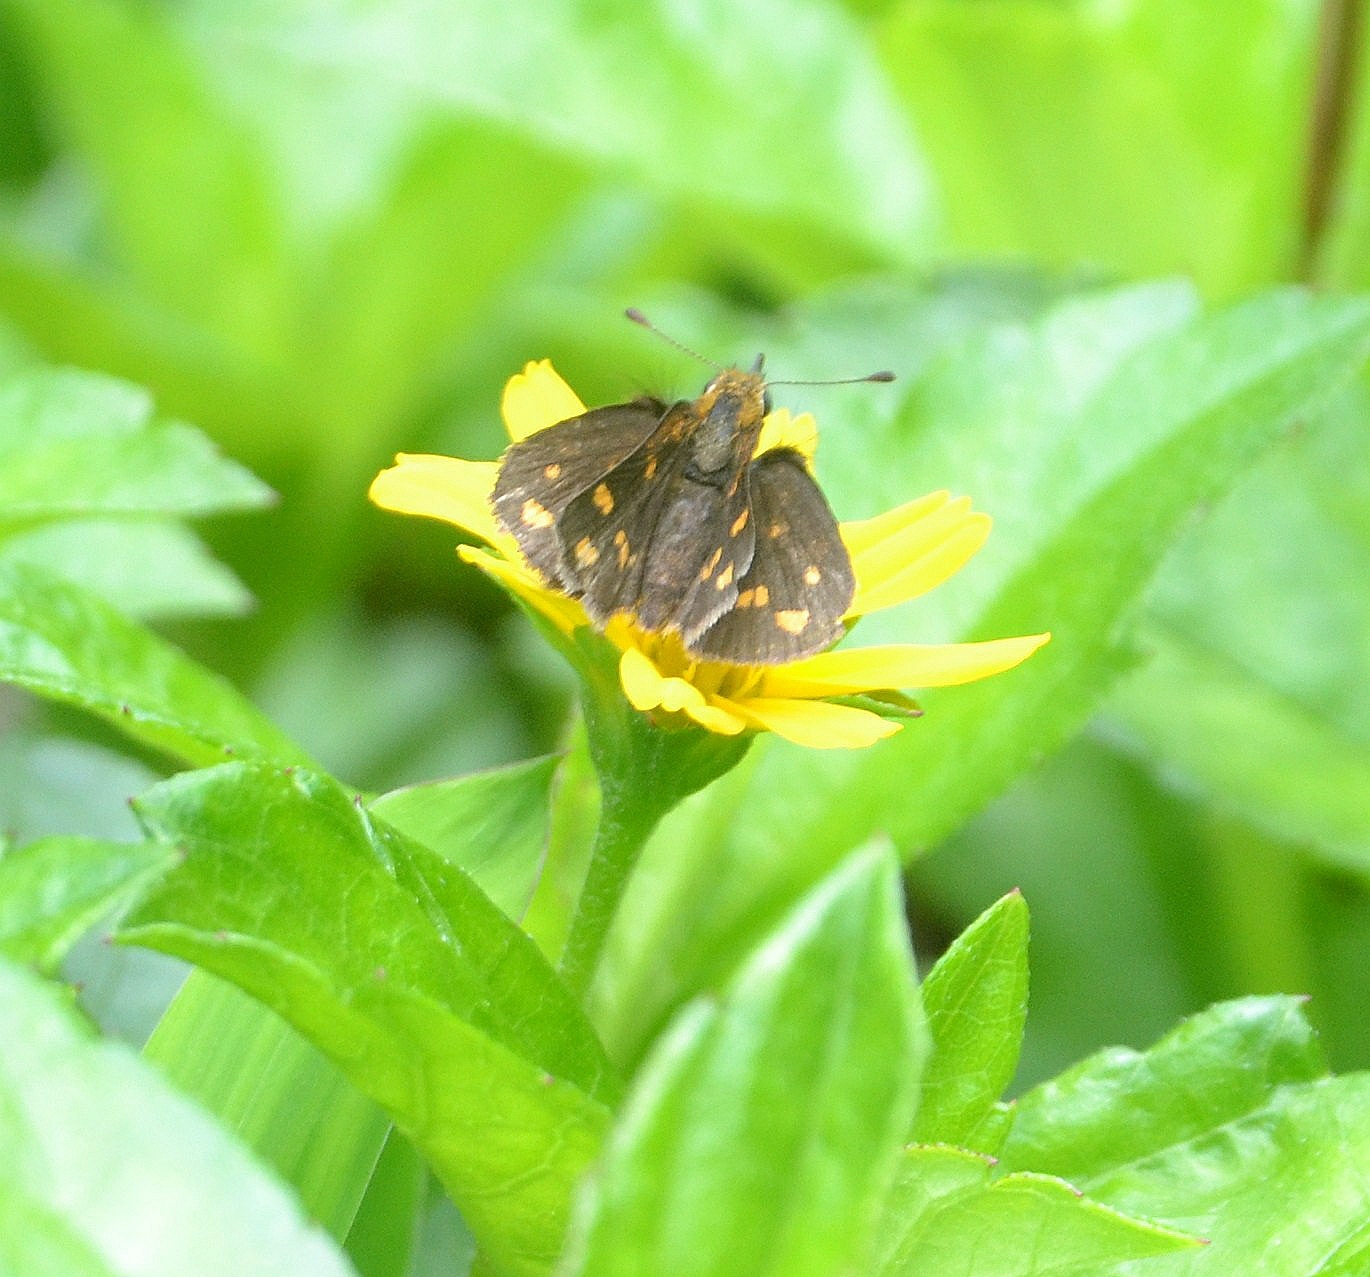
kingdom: Animalia
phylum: Arthropoda
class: Insecta
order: Lepidoptera
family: Hesperiidae
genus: Taractrocera
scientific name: Taractrocera ceramas
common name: Tamil grass dart
